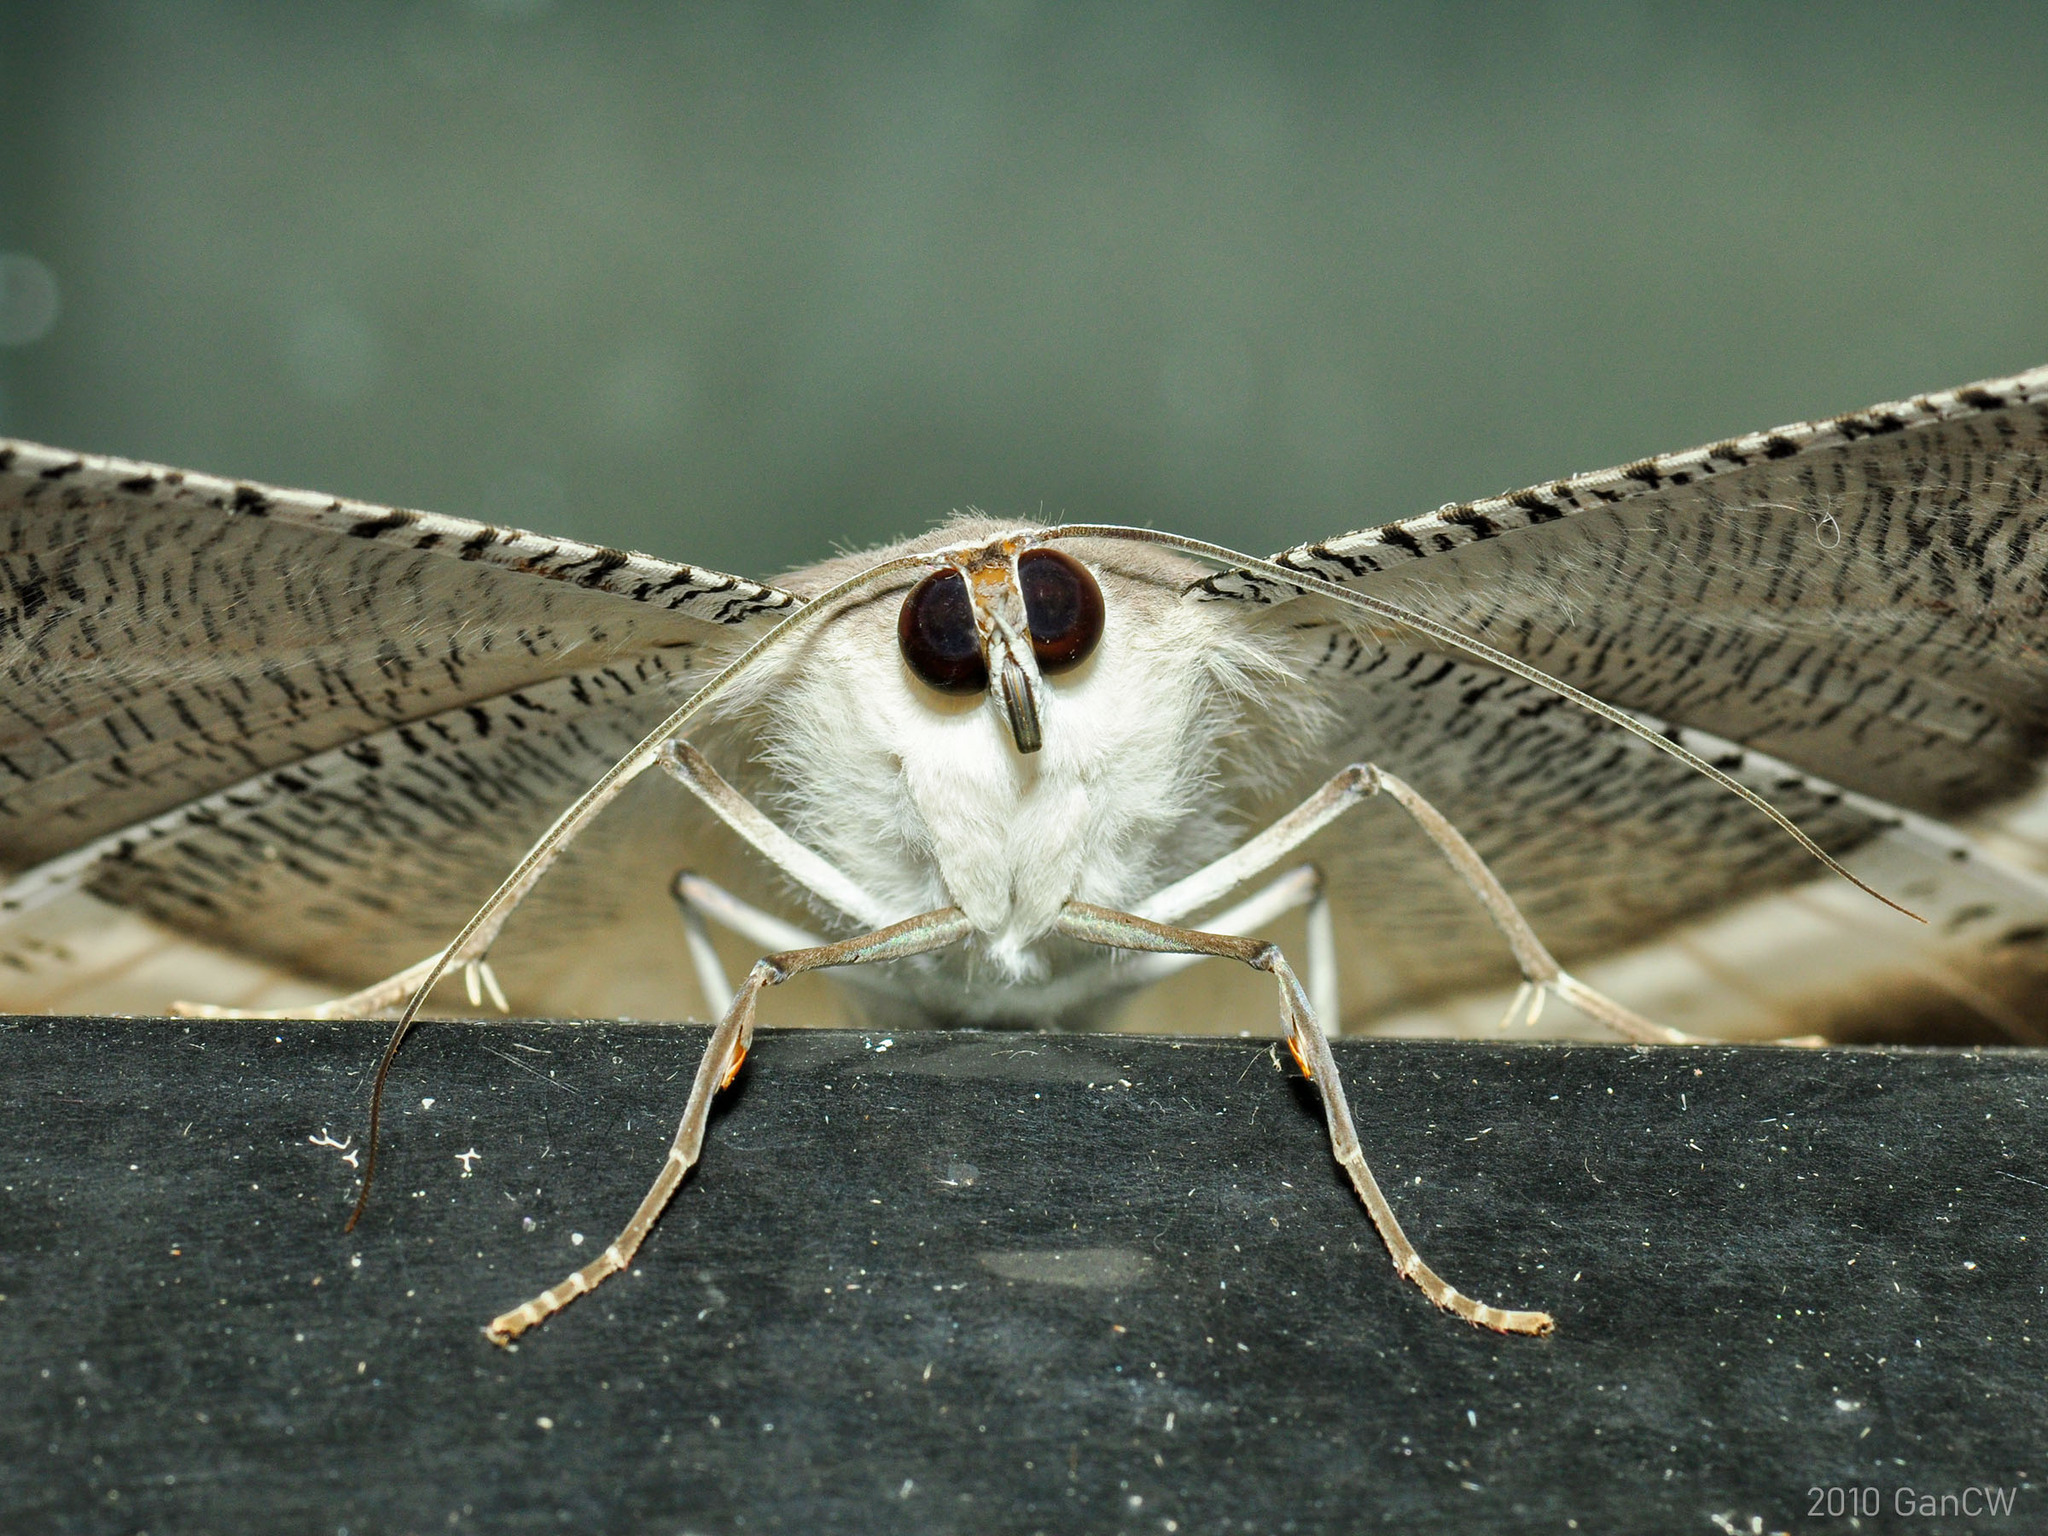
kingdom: Animalia
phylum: Arthropoda
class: Insecta
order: Lepidoptera
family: Uraniidae
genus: Lyssa
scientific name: Lyssa zampa
